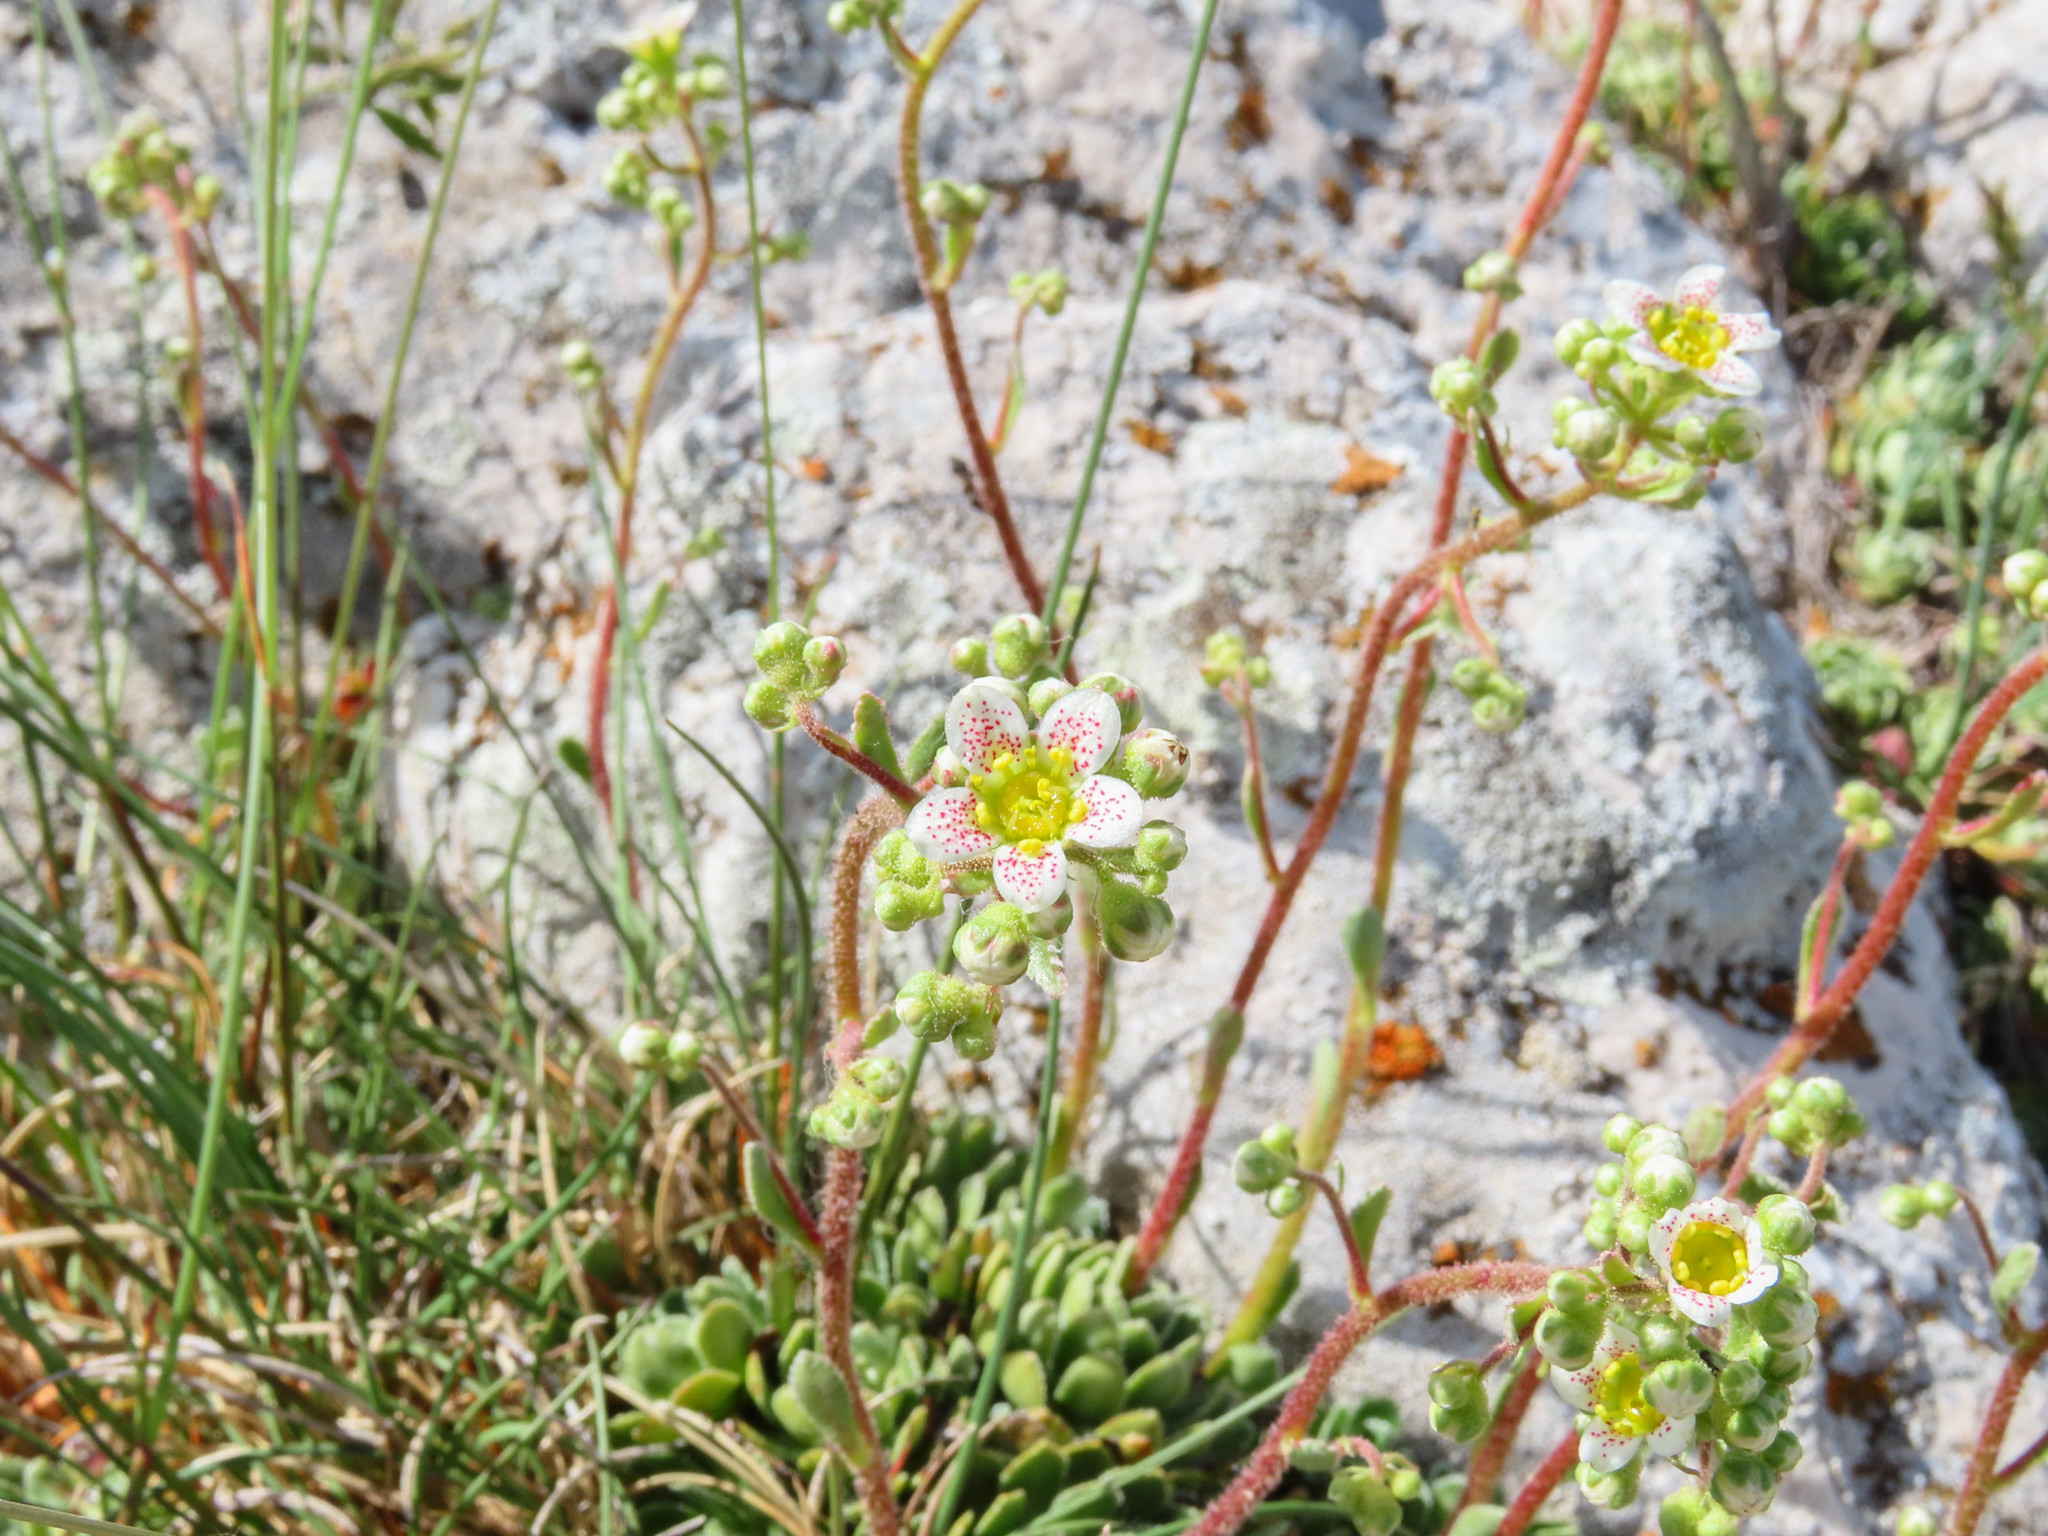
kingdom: Plantae
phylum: Tracheophyta
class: Magnoliopsida
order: Saxifragales
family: Saxifragaceae
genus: Saxifraga
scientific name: Saxifraga paniculata
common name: Livelong saxifrage
